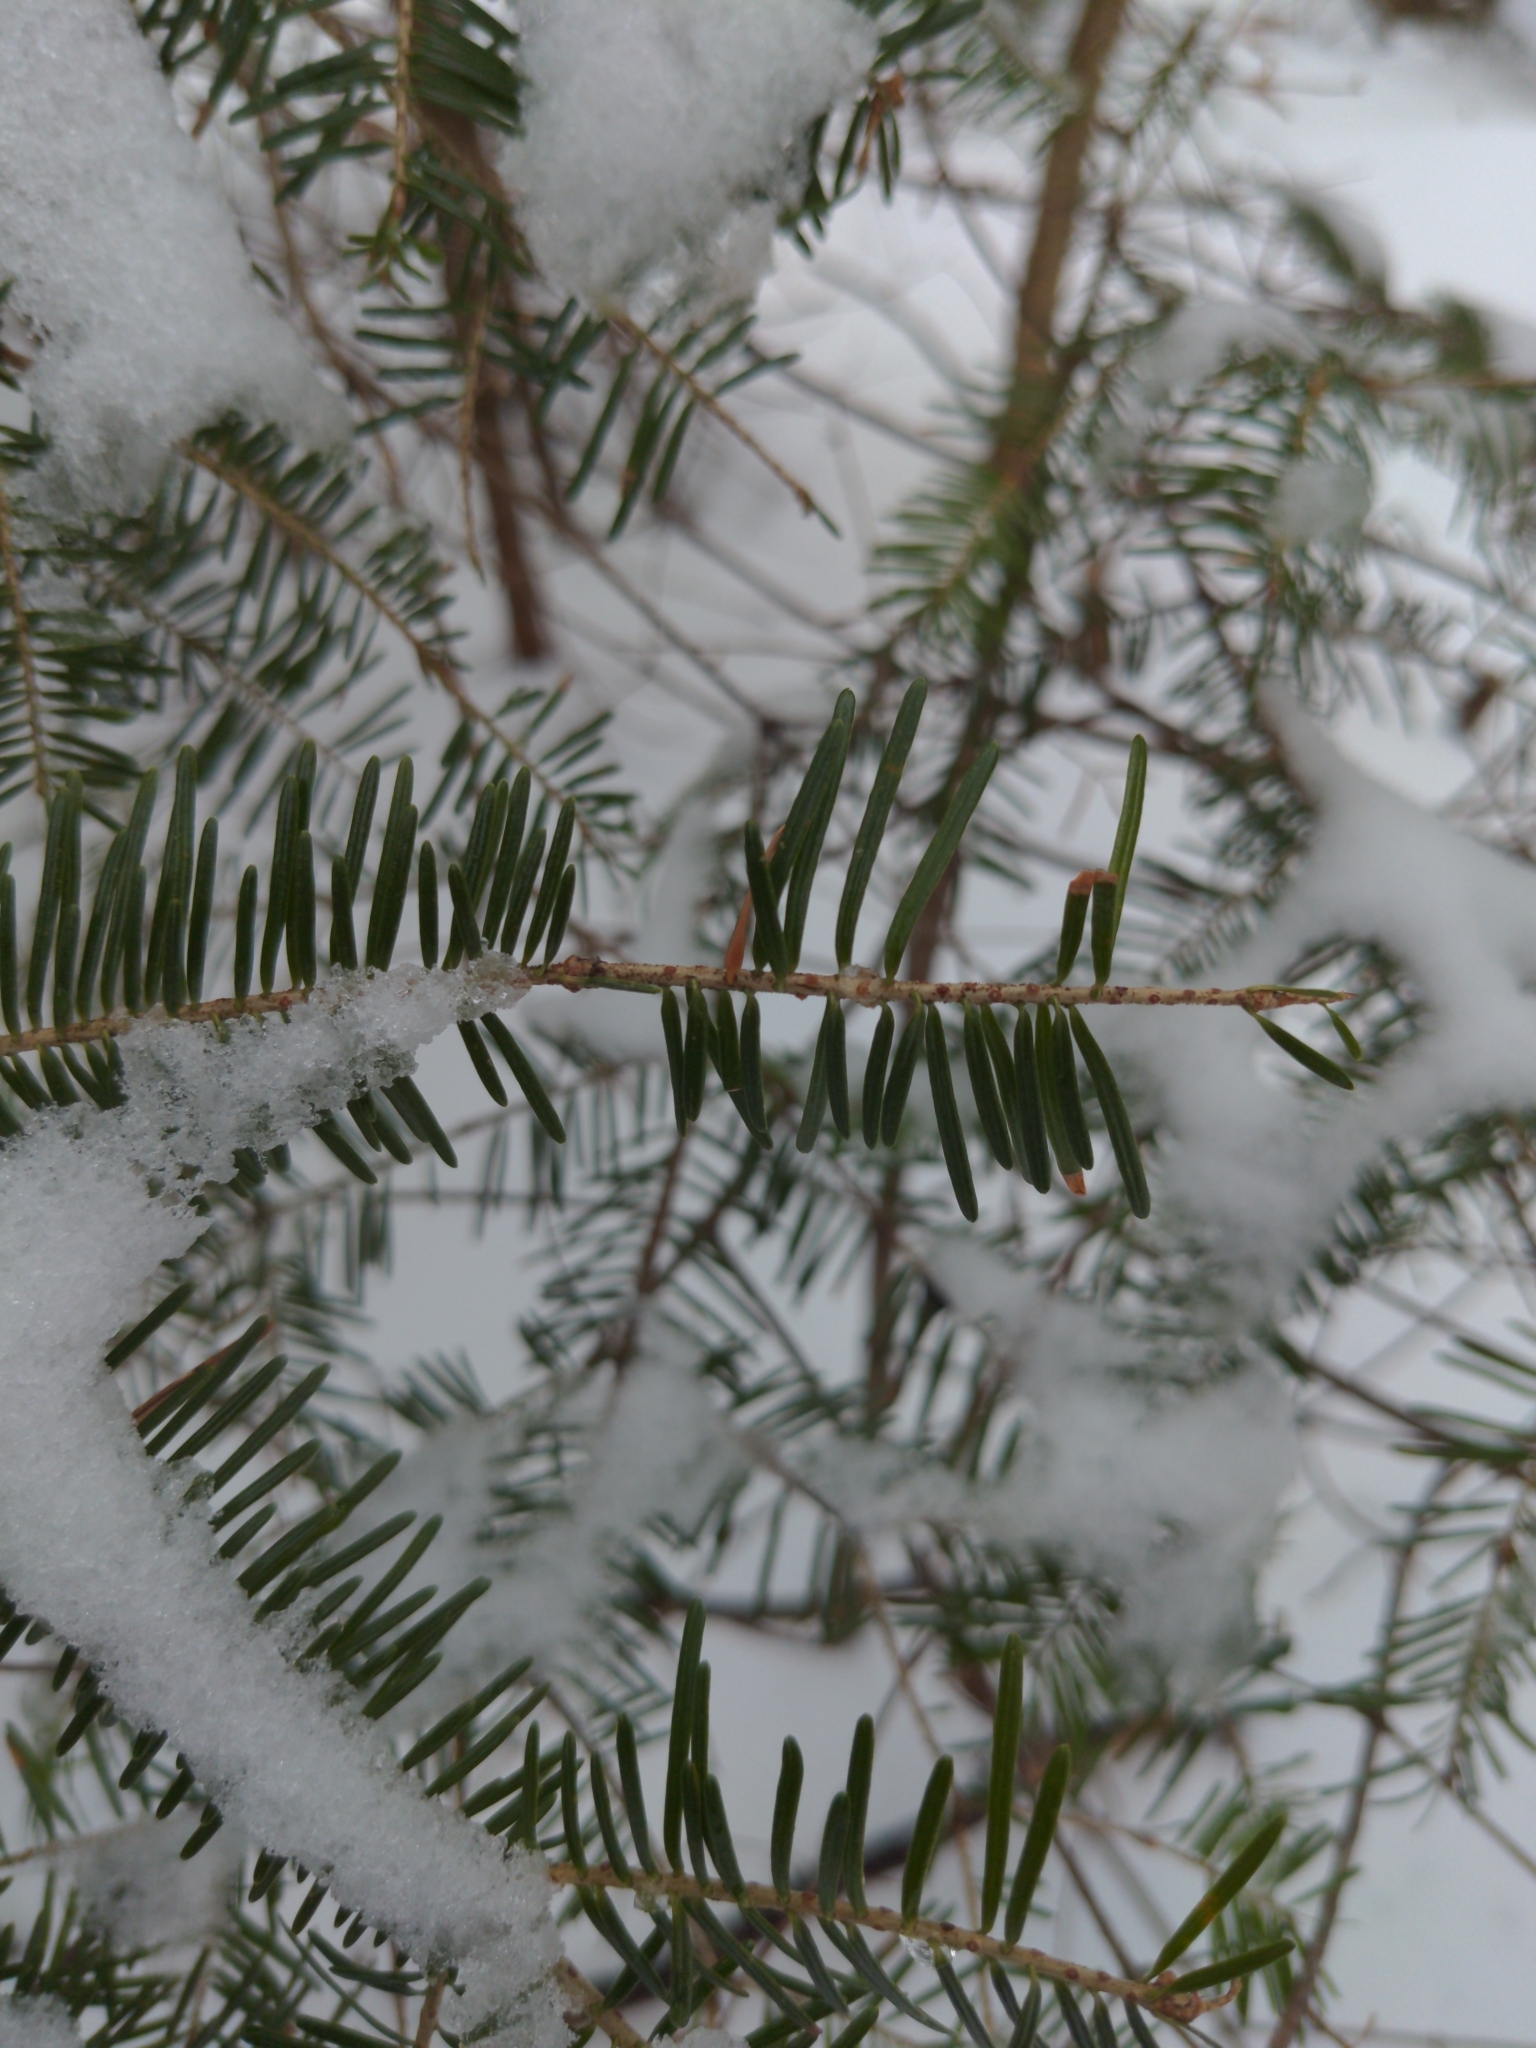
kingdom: Plantae
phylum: Tracheophyta
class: Pinopsida
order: Pinales
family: Pinaceae
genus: Abies
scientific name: Abies balsamea
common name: Balsam fir
